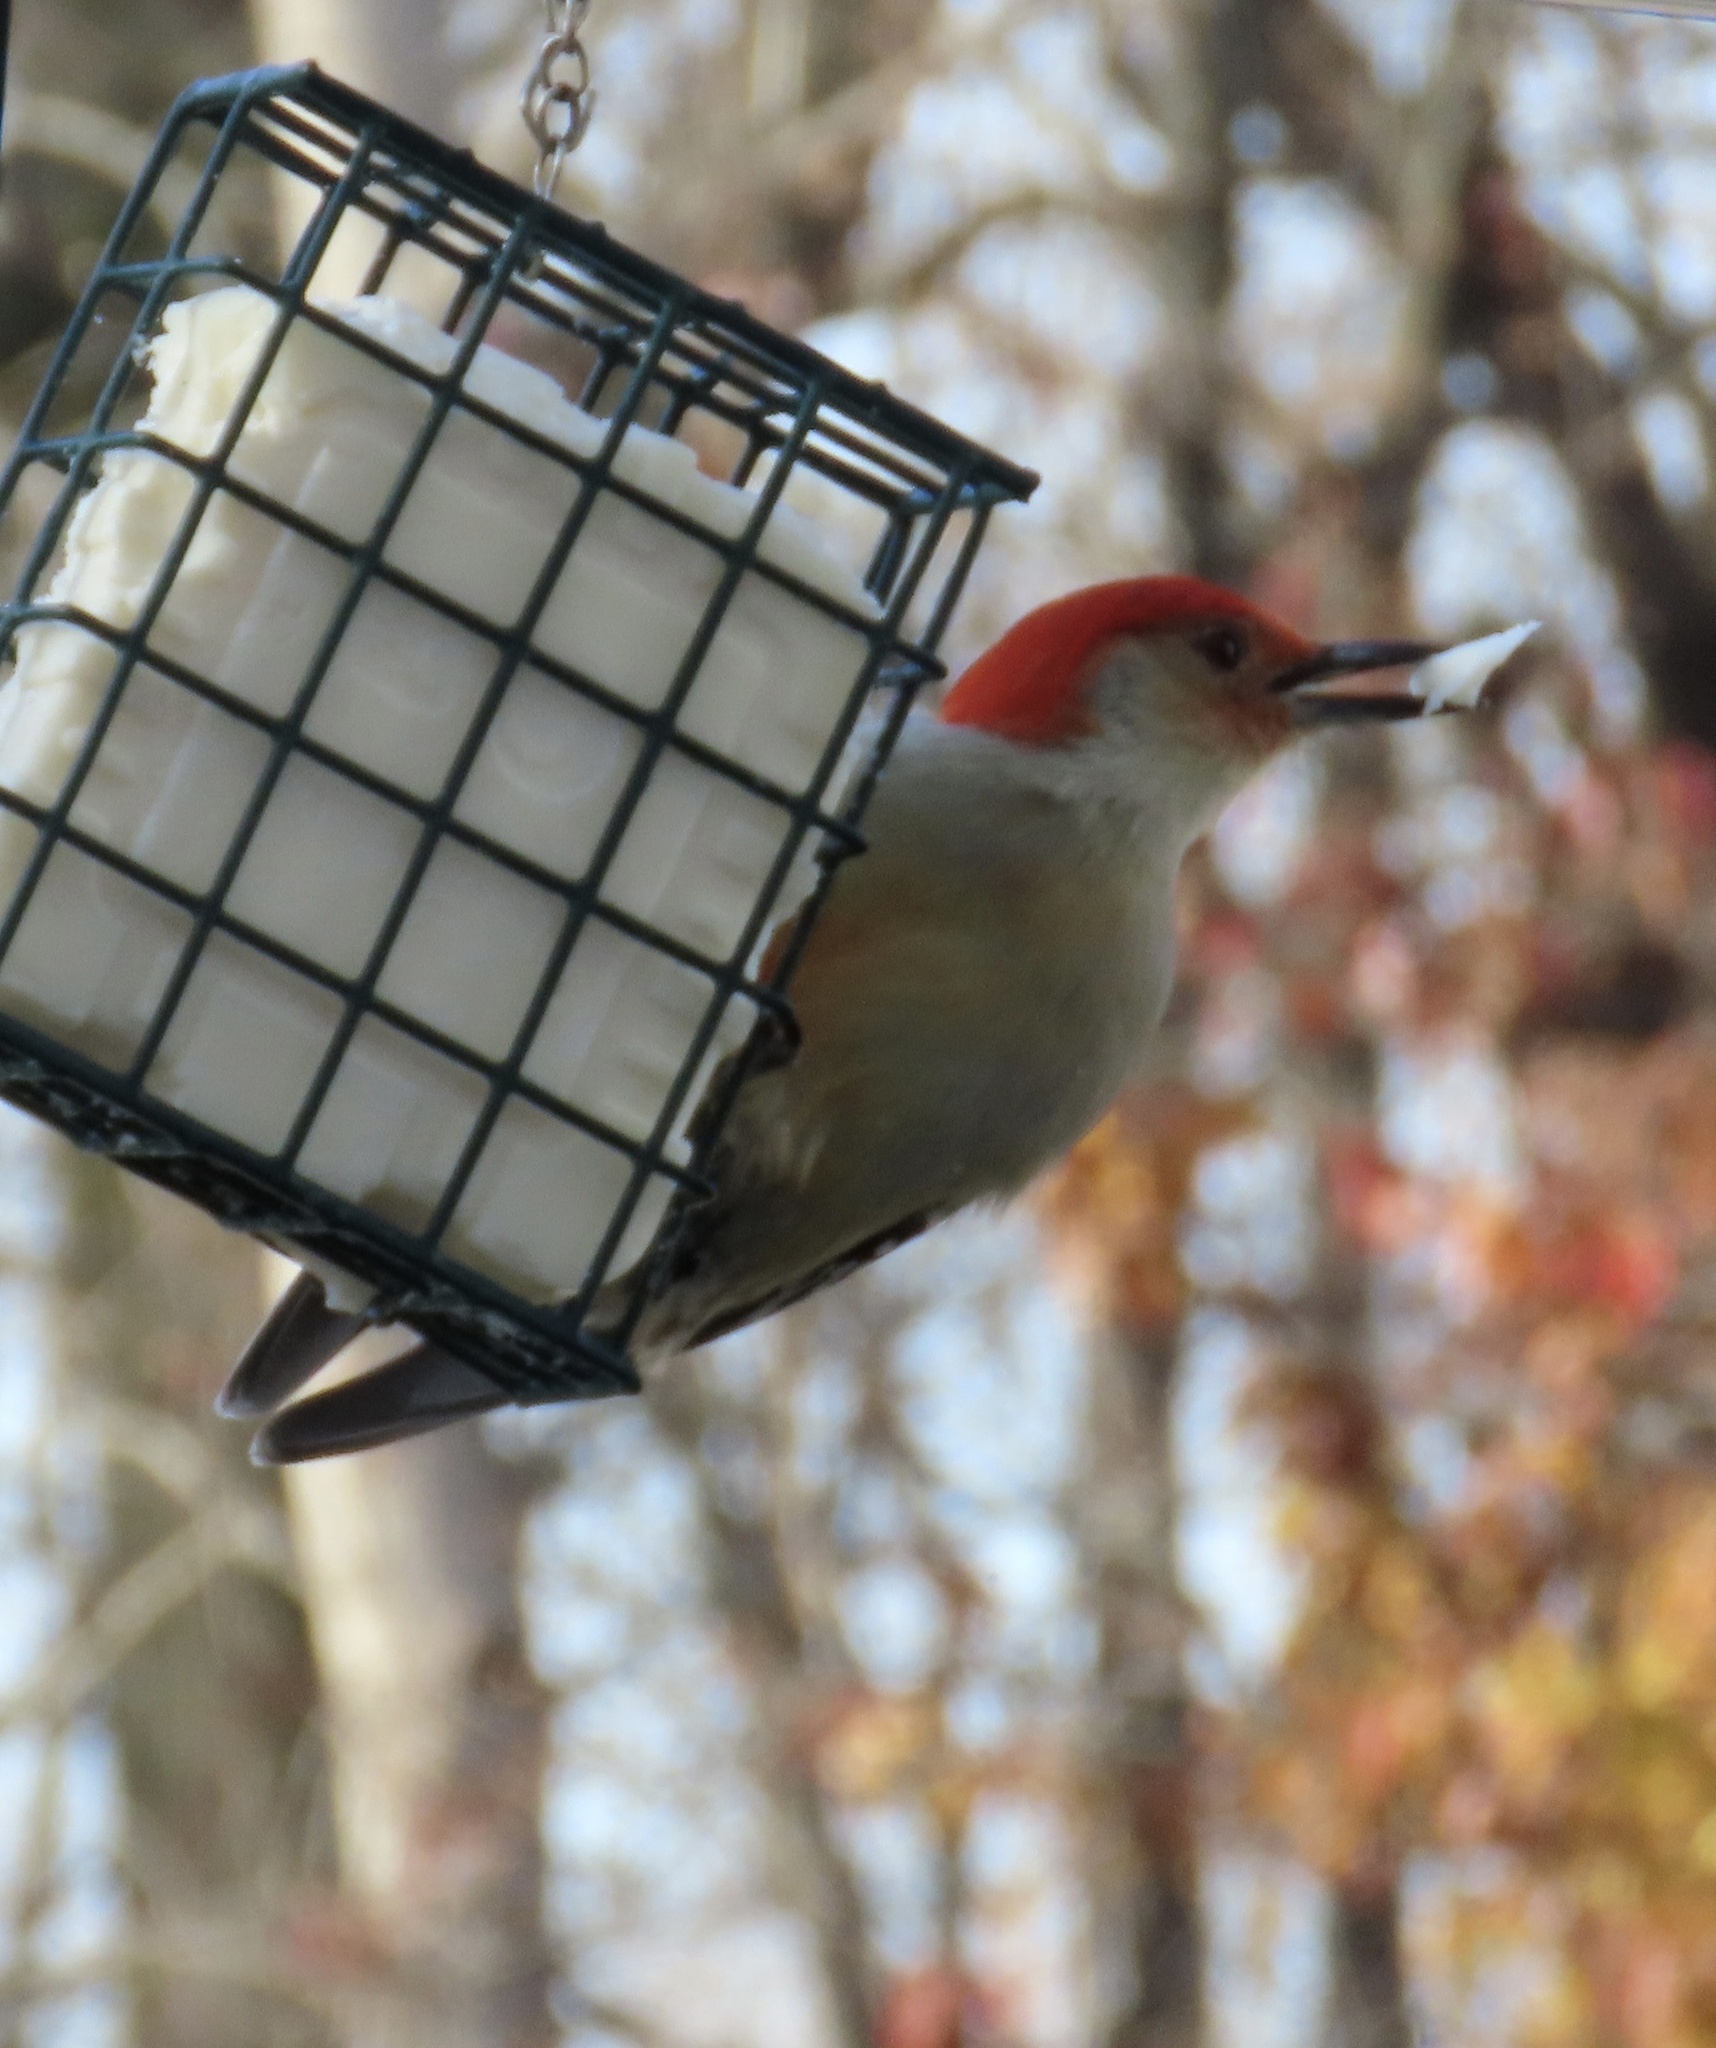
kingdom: Animalia
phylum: Chordata
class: Aves
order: Piciformes
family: Picidae
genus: Melanerpes
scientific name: Melanerpes carolinus
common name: Red-bellied woodpecker
